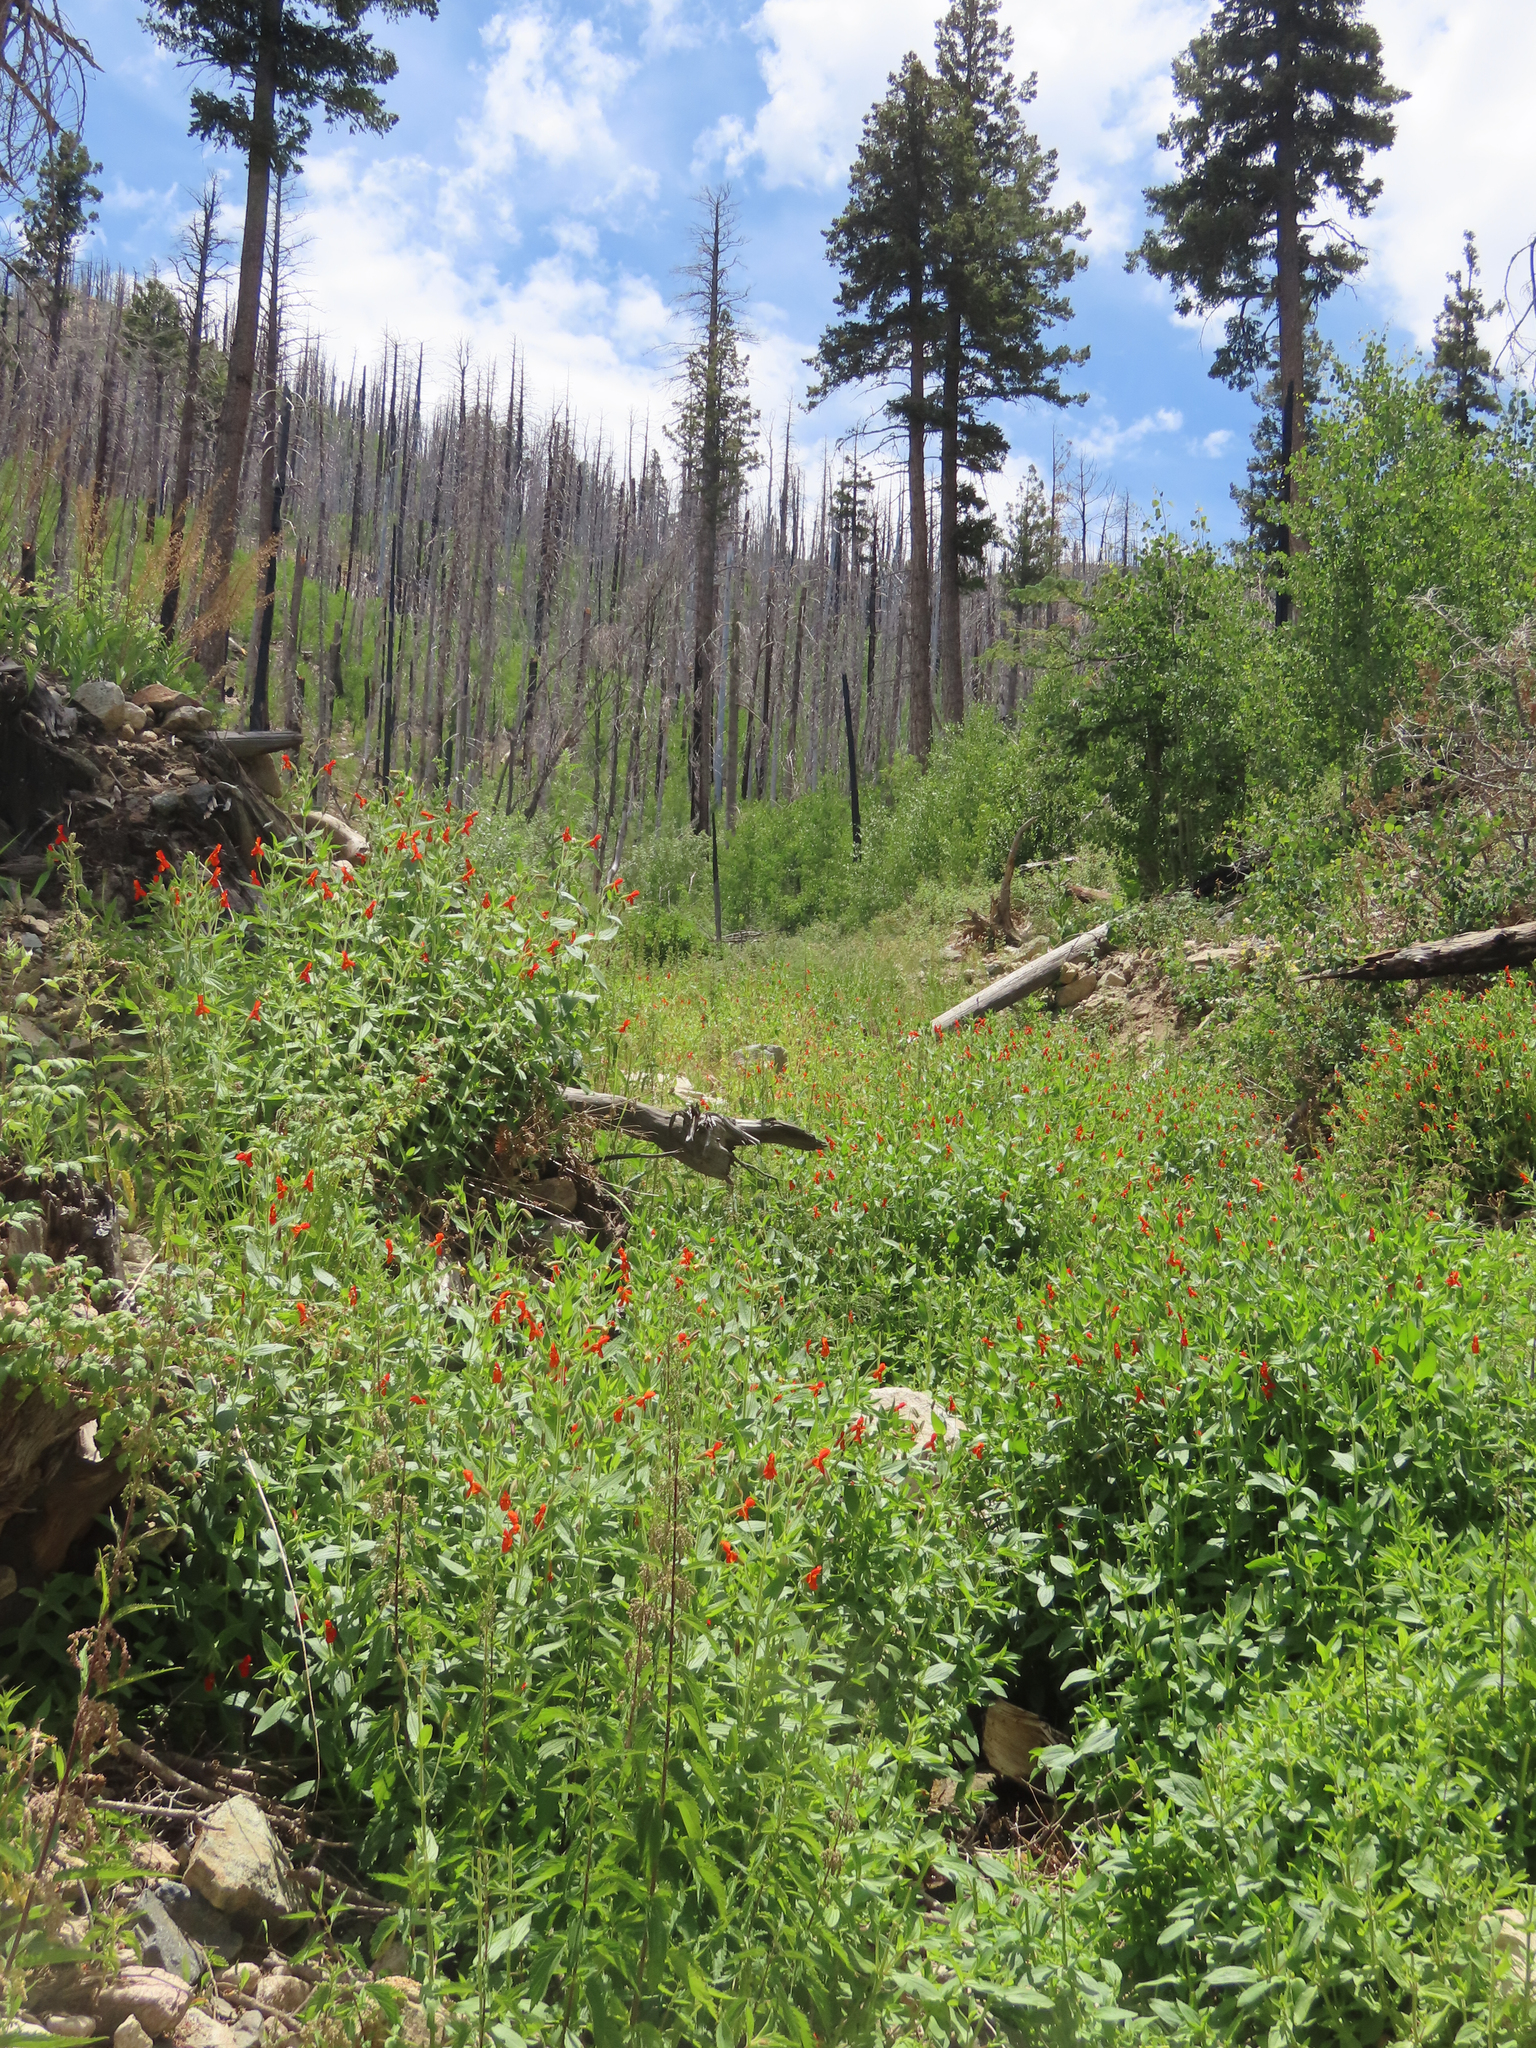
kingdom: Plantae
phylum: Tracheophyta
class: Magnoliopsida
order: Lamiales
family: Phrymaceae
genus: Erythranthe
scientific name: Erythranthe cinnabarina
